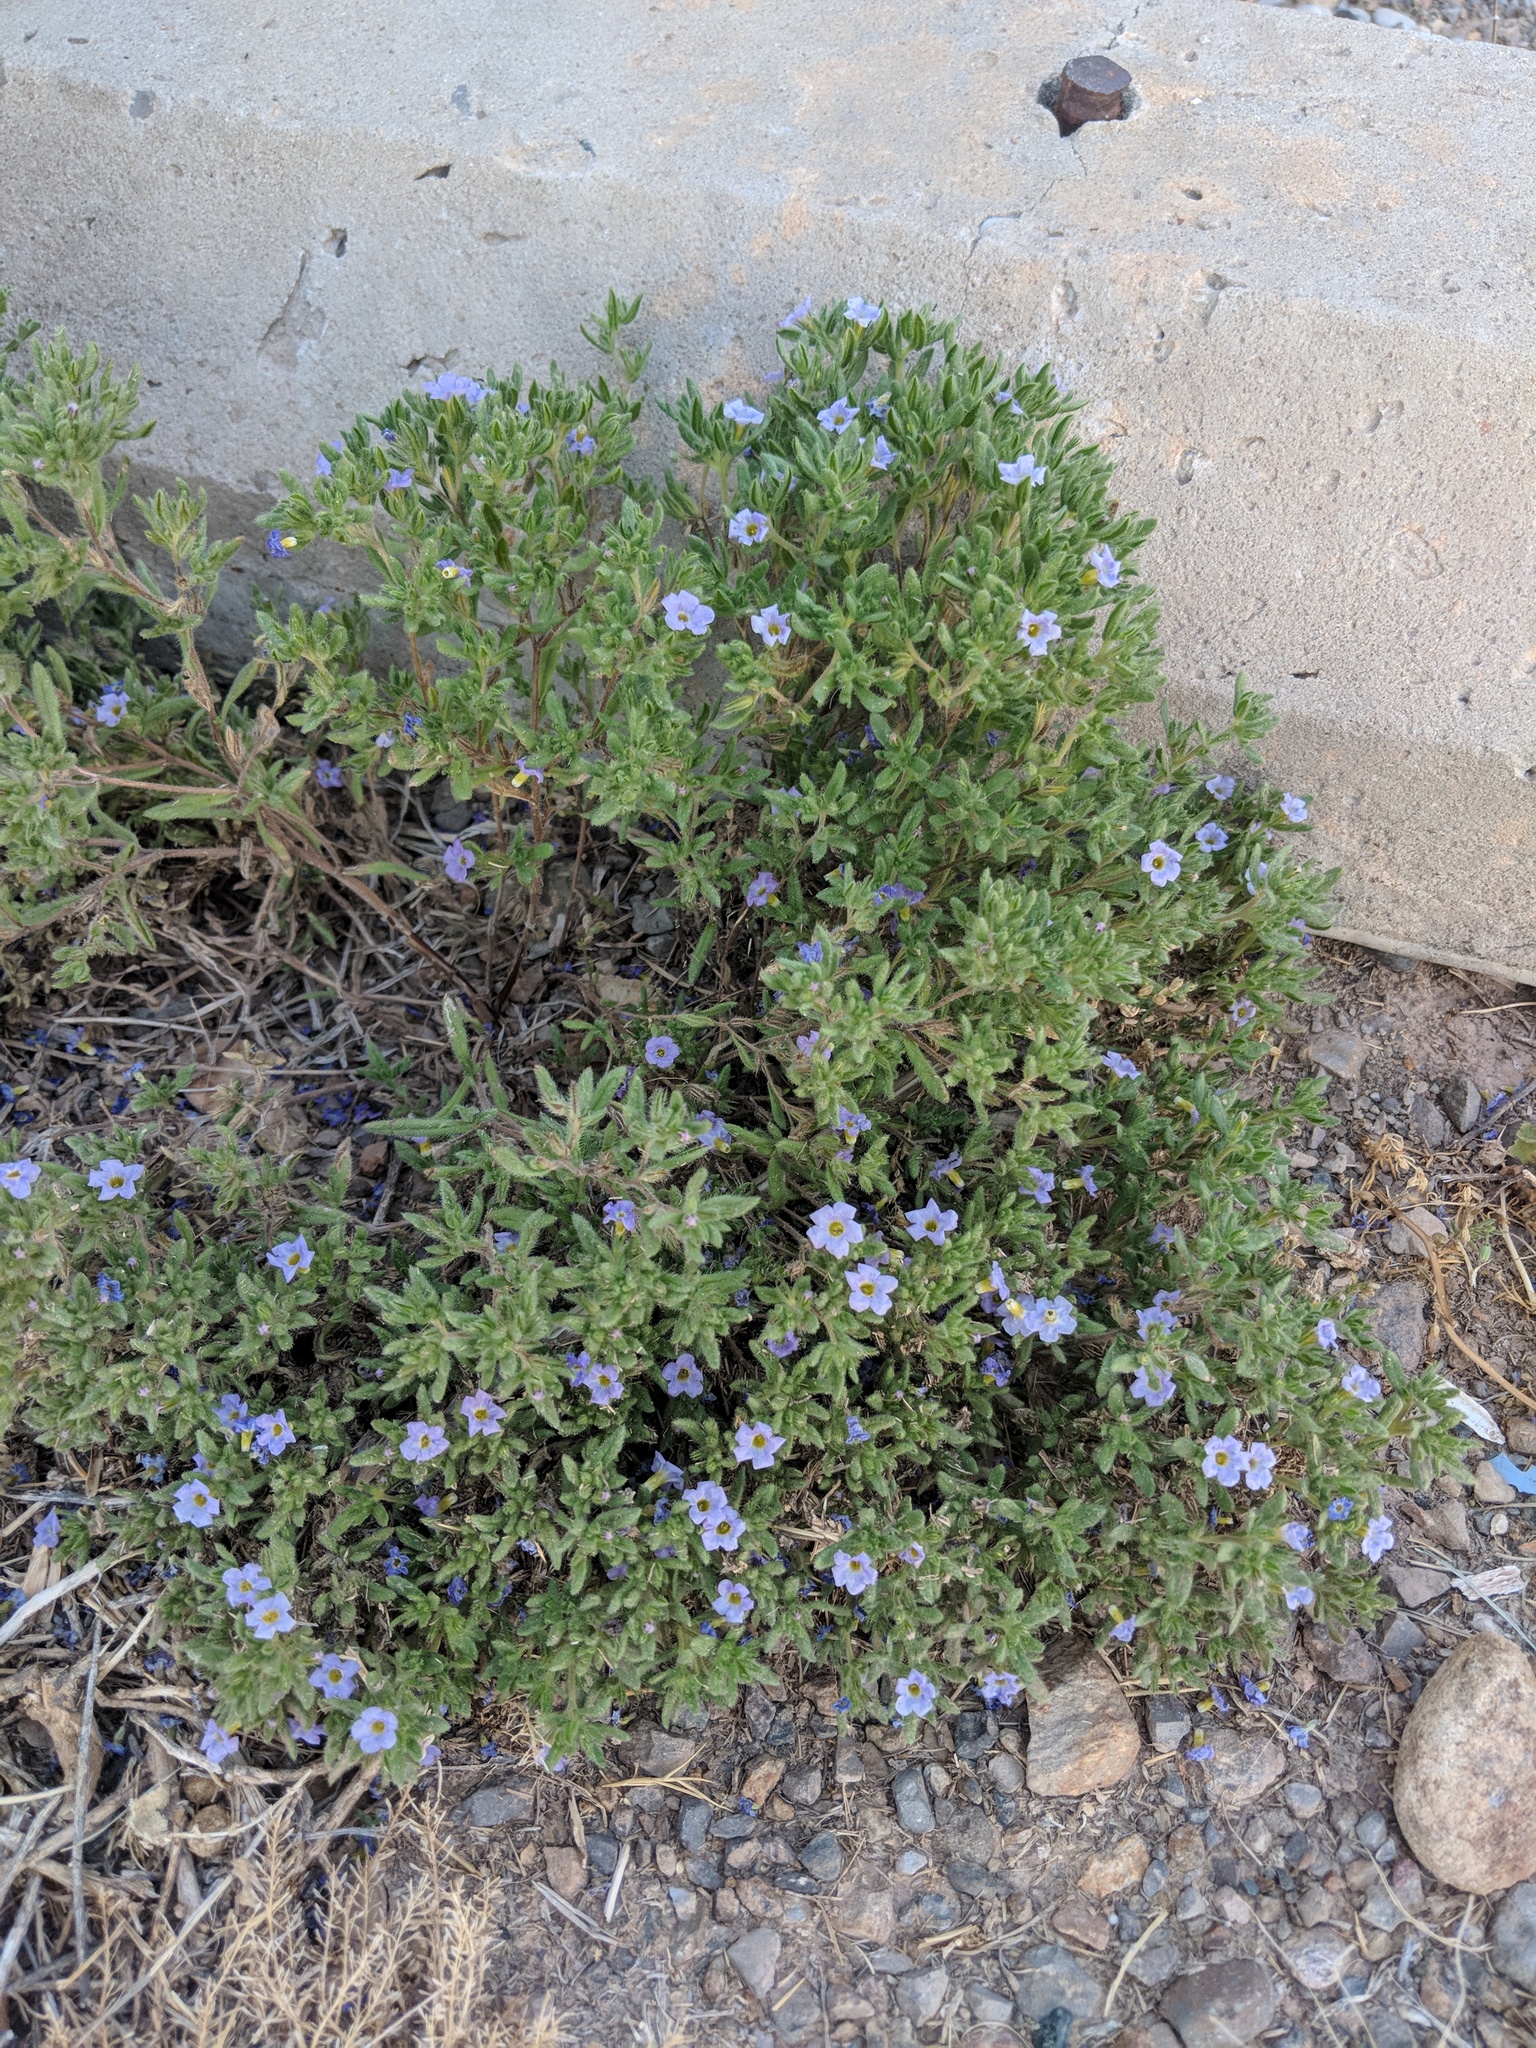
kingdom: Plantae
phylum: Tracheophyta
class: Magnoliopsida
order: Boraginales
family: Namaceae
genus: Nama
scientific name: Nama hispida
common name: Bristly nama
